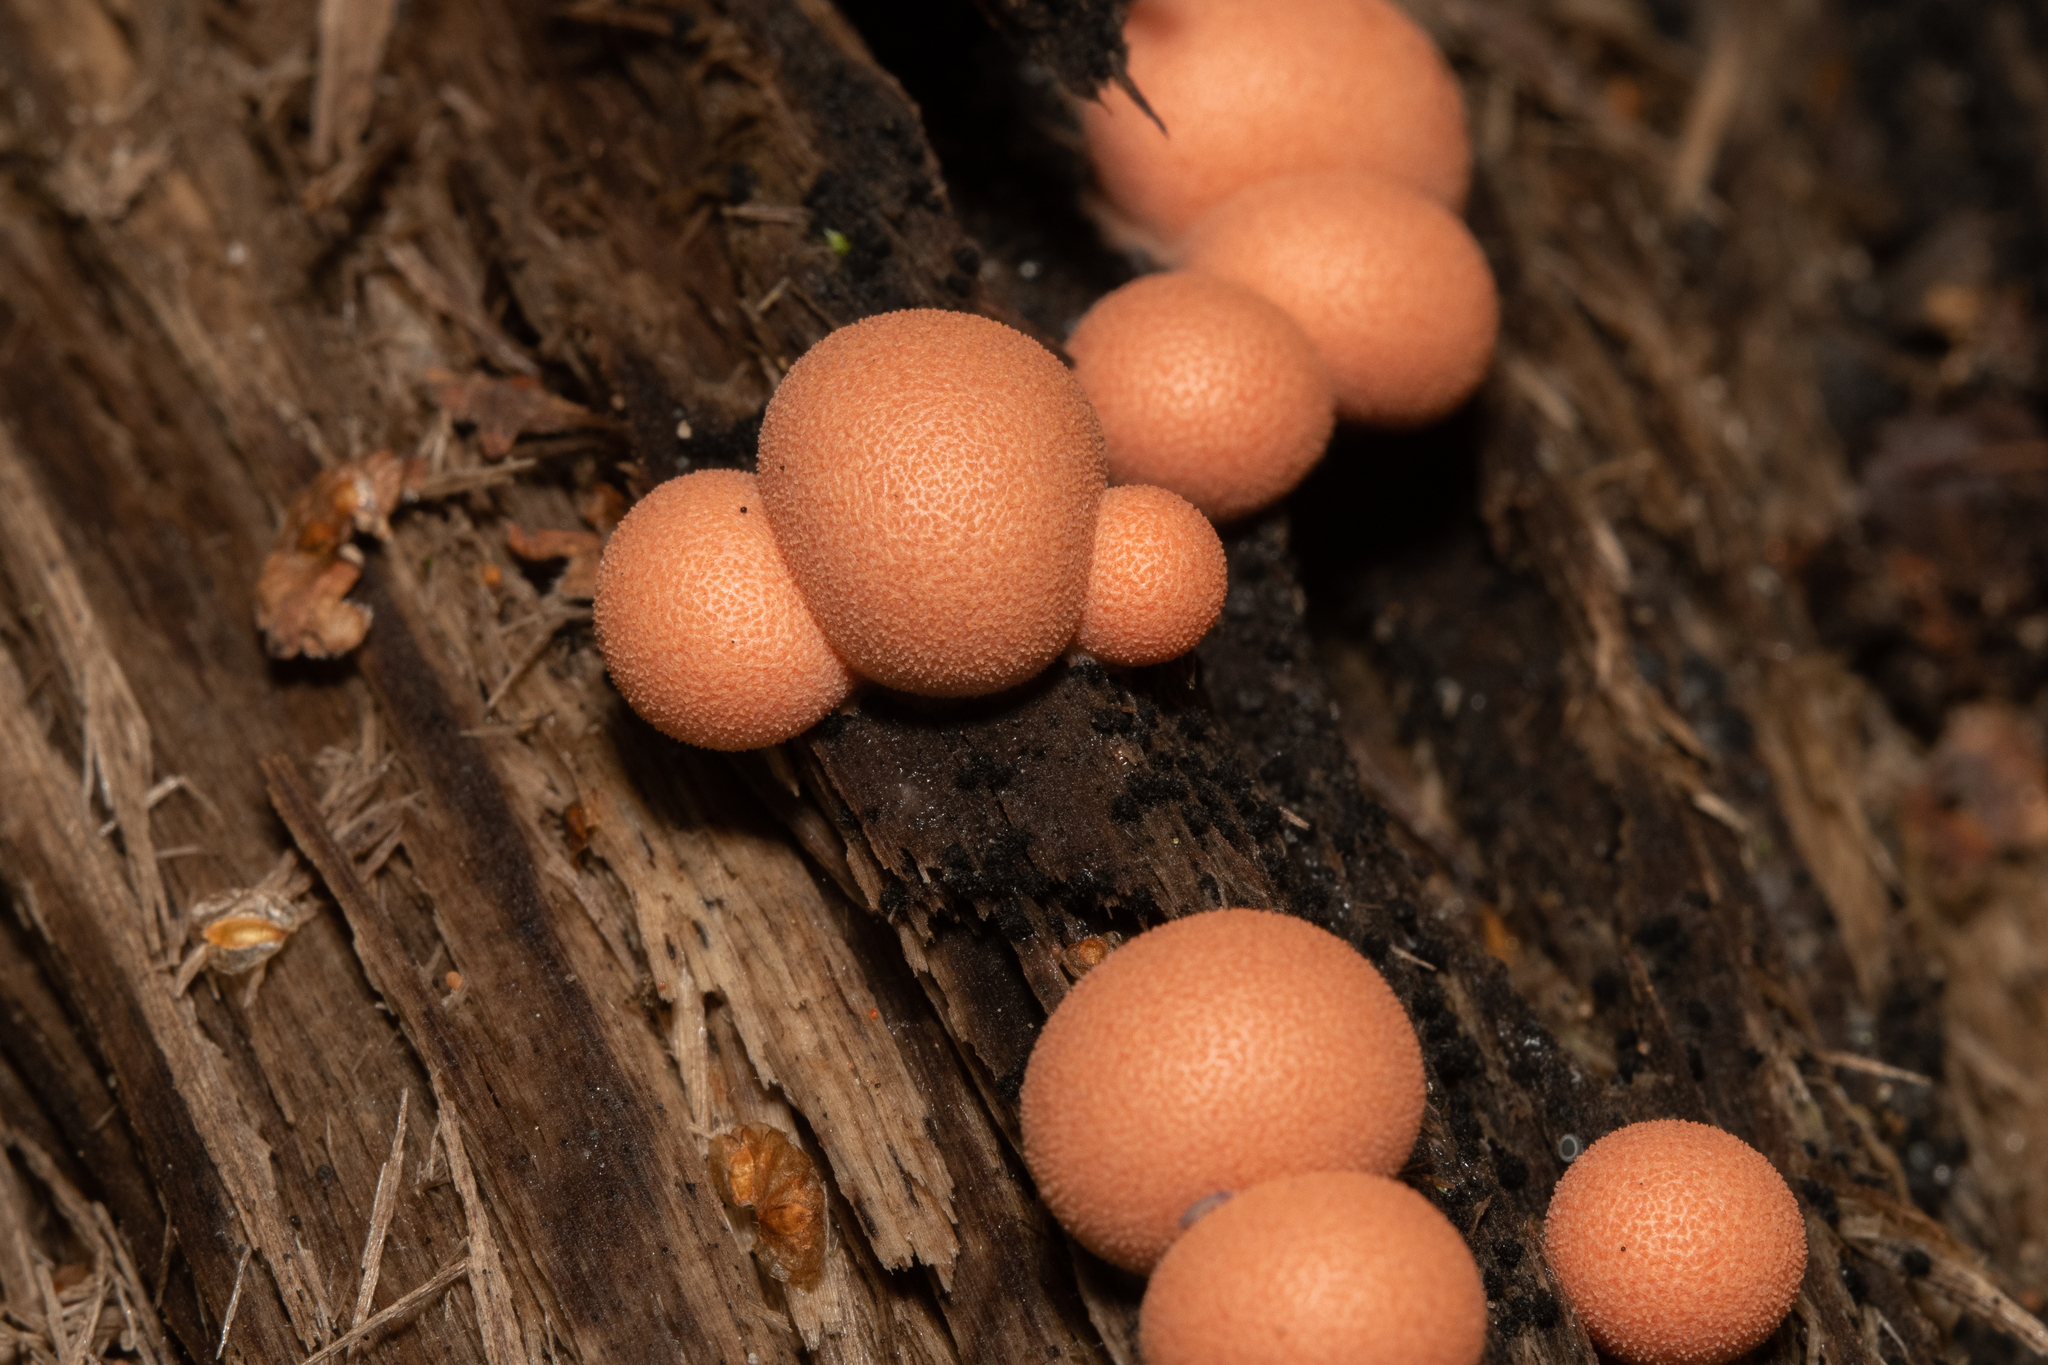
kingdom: Protozoa
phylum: Mycetozoa
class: Myxomycetes
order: Cribrariales
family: Tubiferaceae
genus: Lycogala
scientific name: Lycogala epidendrum
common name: Wolf's milk
